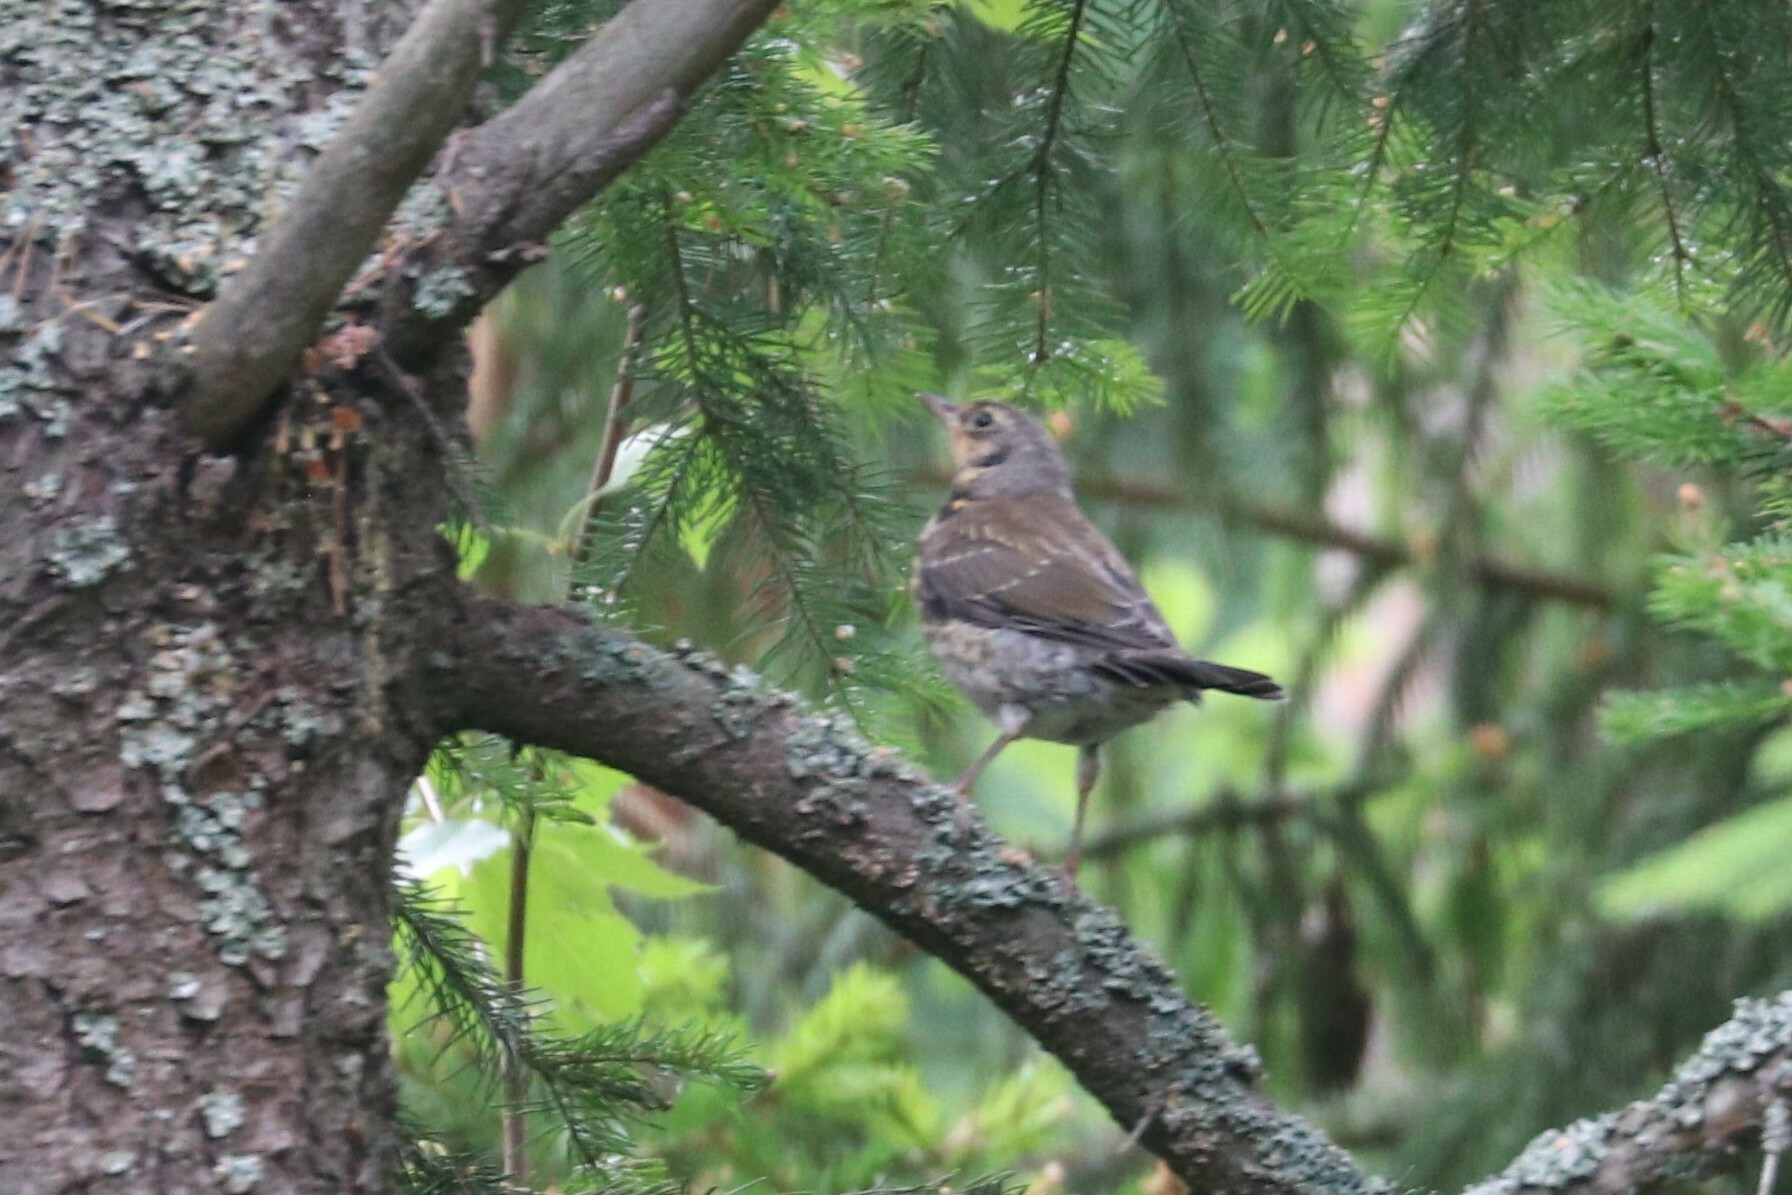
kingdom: Animalia
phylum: Chordata
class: Aves
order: Passeriformes
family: Turdidae
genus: Turdus
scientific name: Turdus pilaris
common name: Fieldfare
